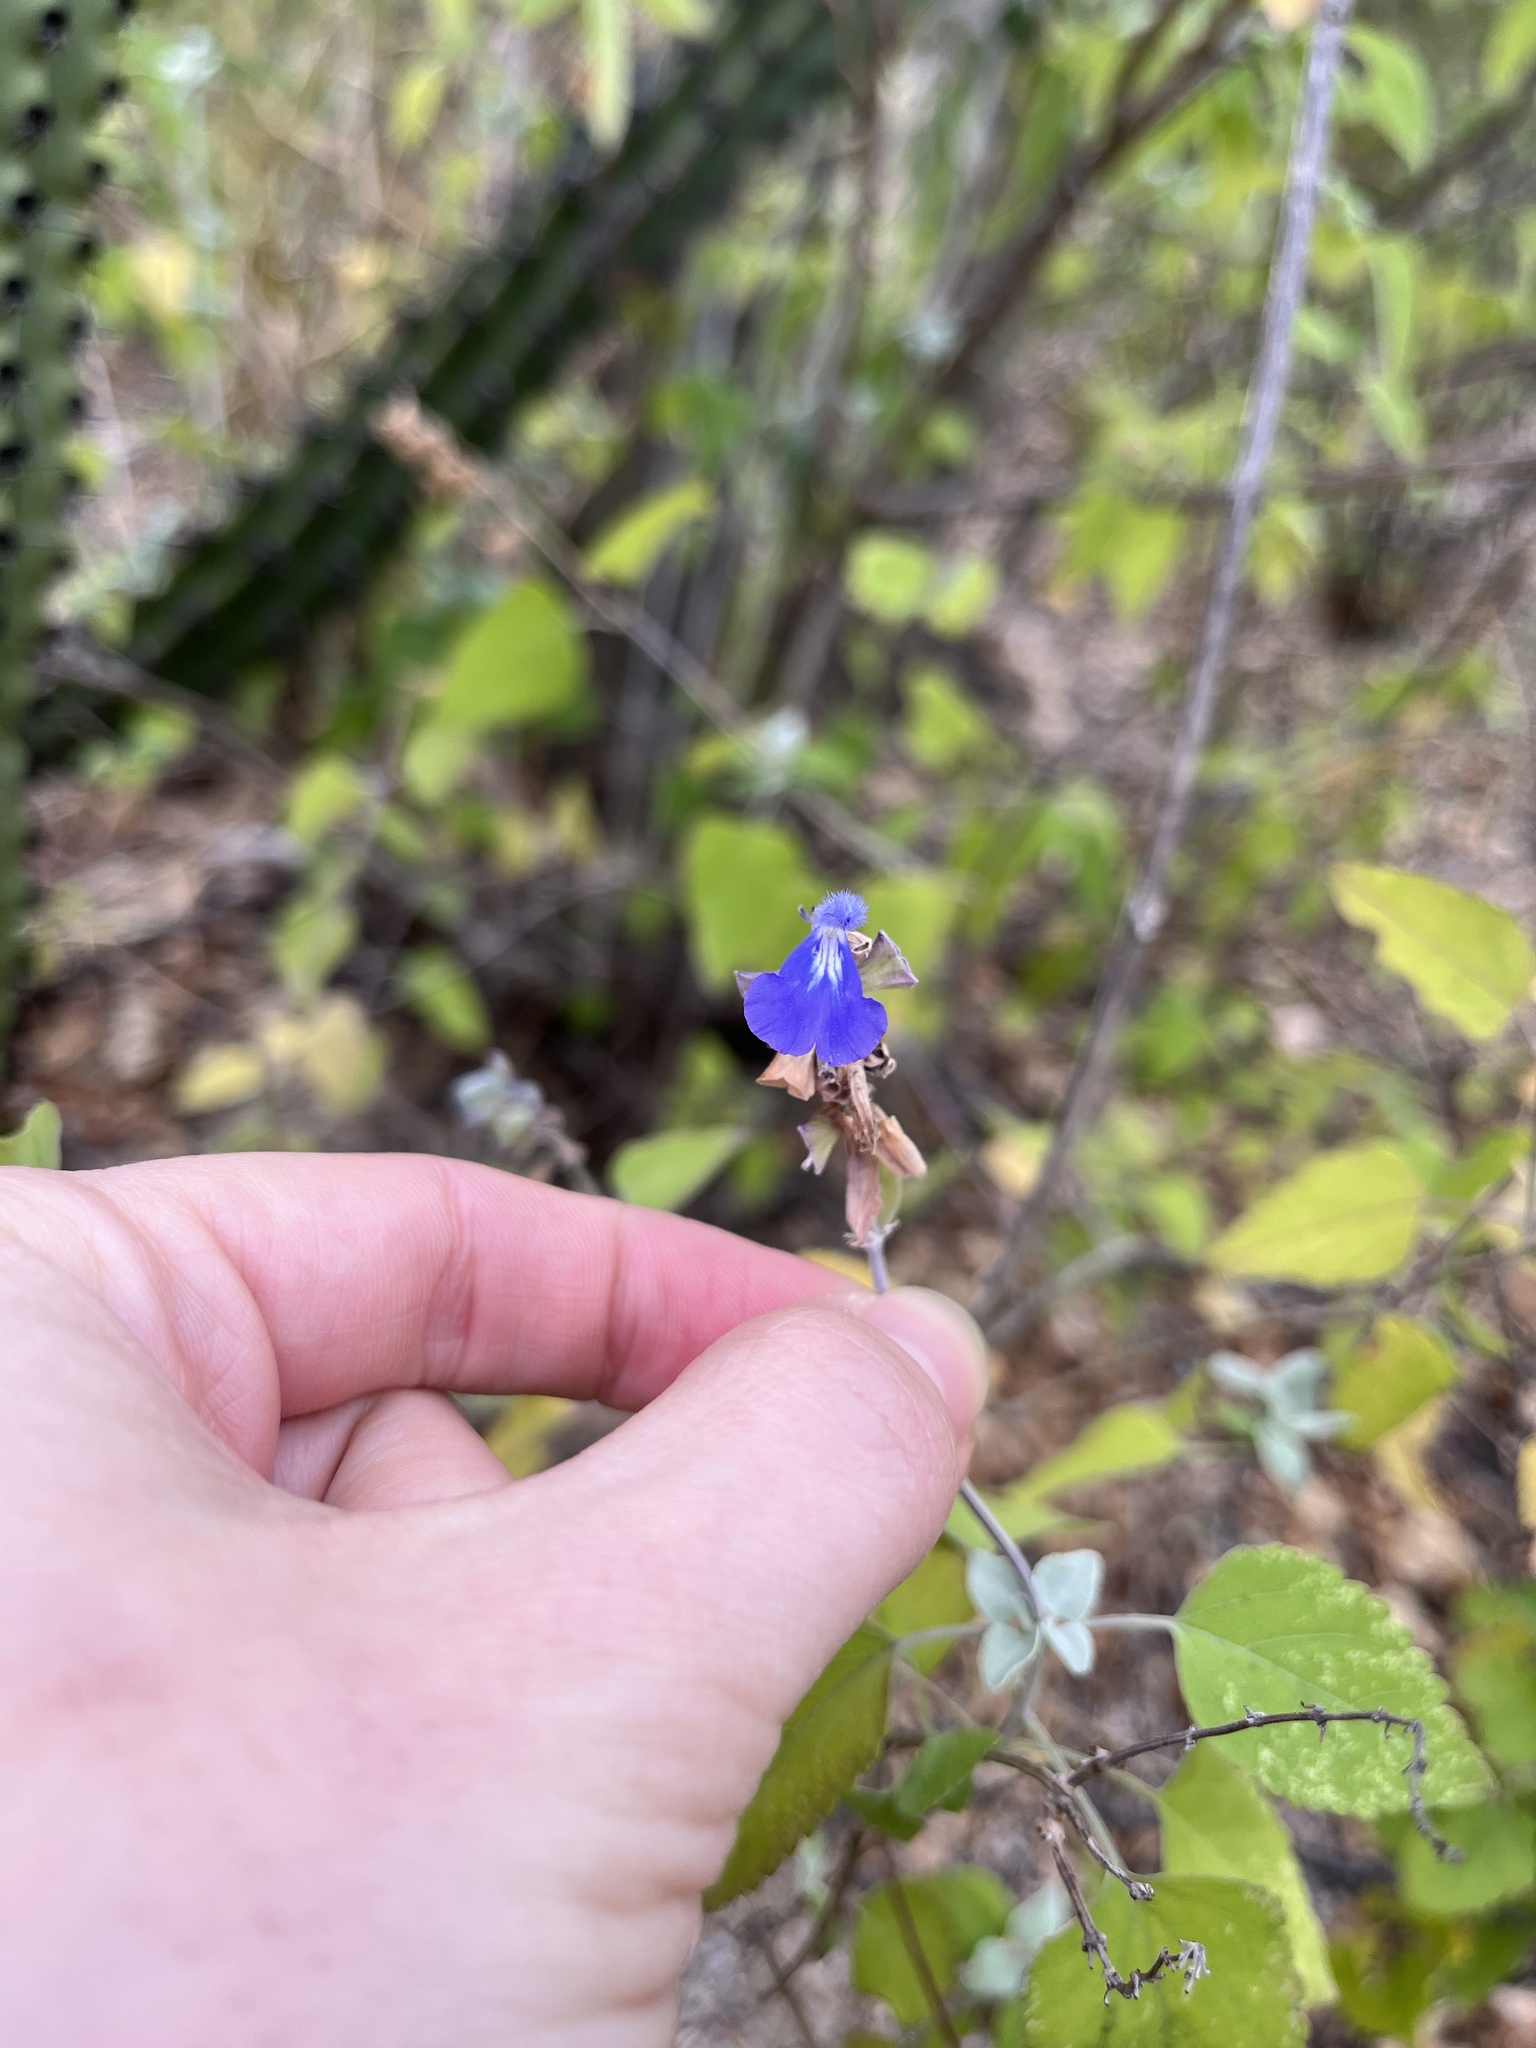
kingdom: Plantae
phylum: Tracheophyta
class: Magnoliopsida
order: Lamiales
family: Lamiaceae
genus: Salvia
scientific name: Salvia similis
